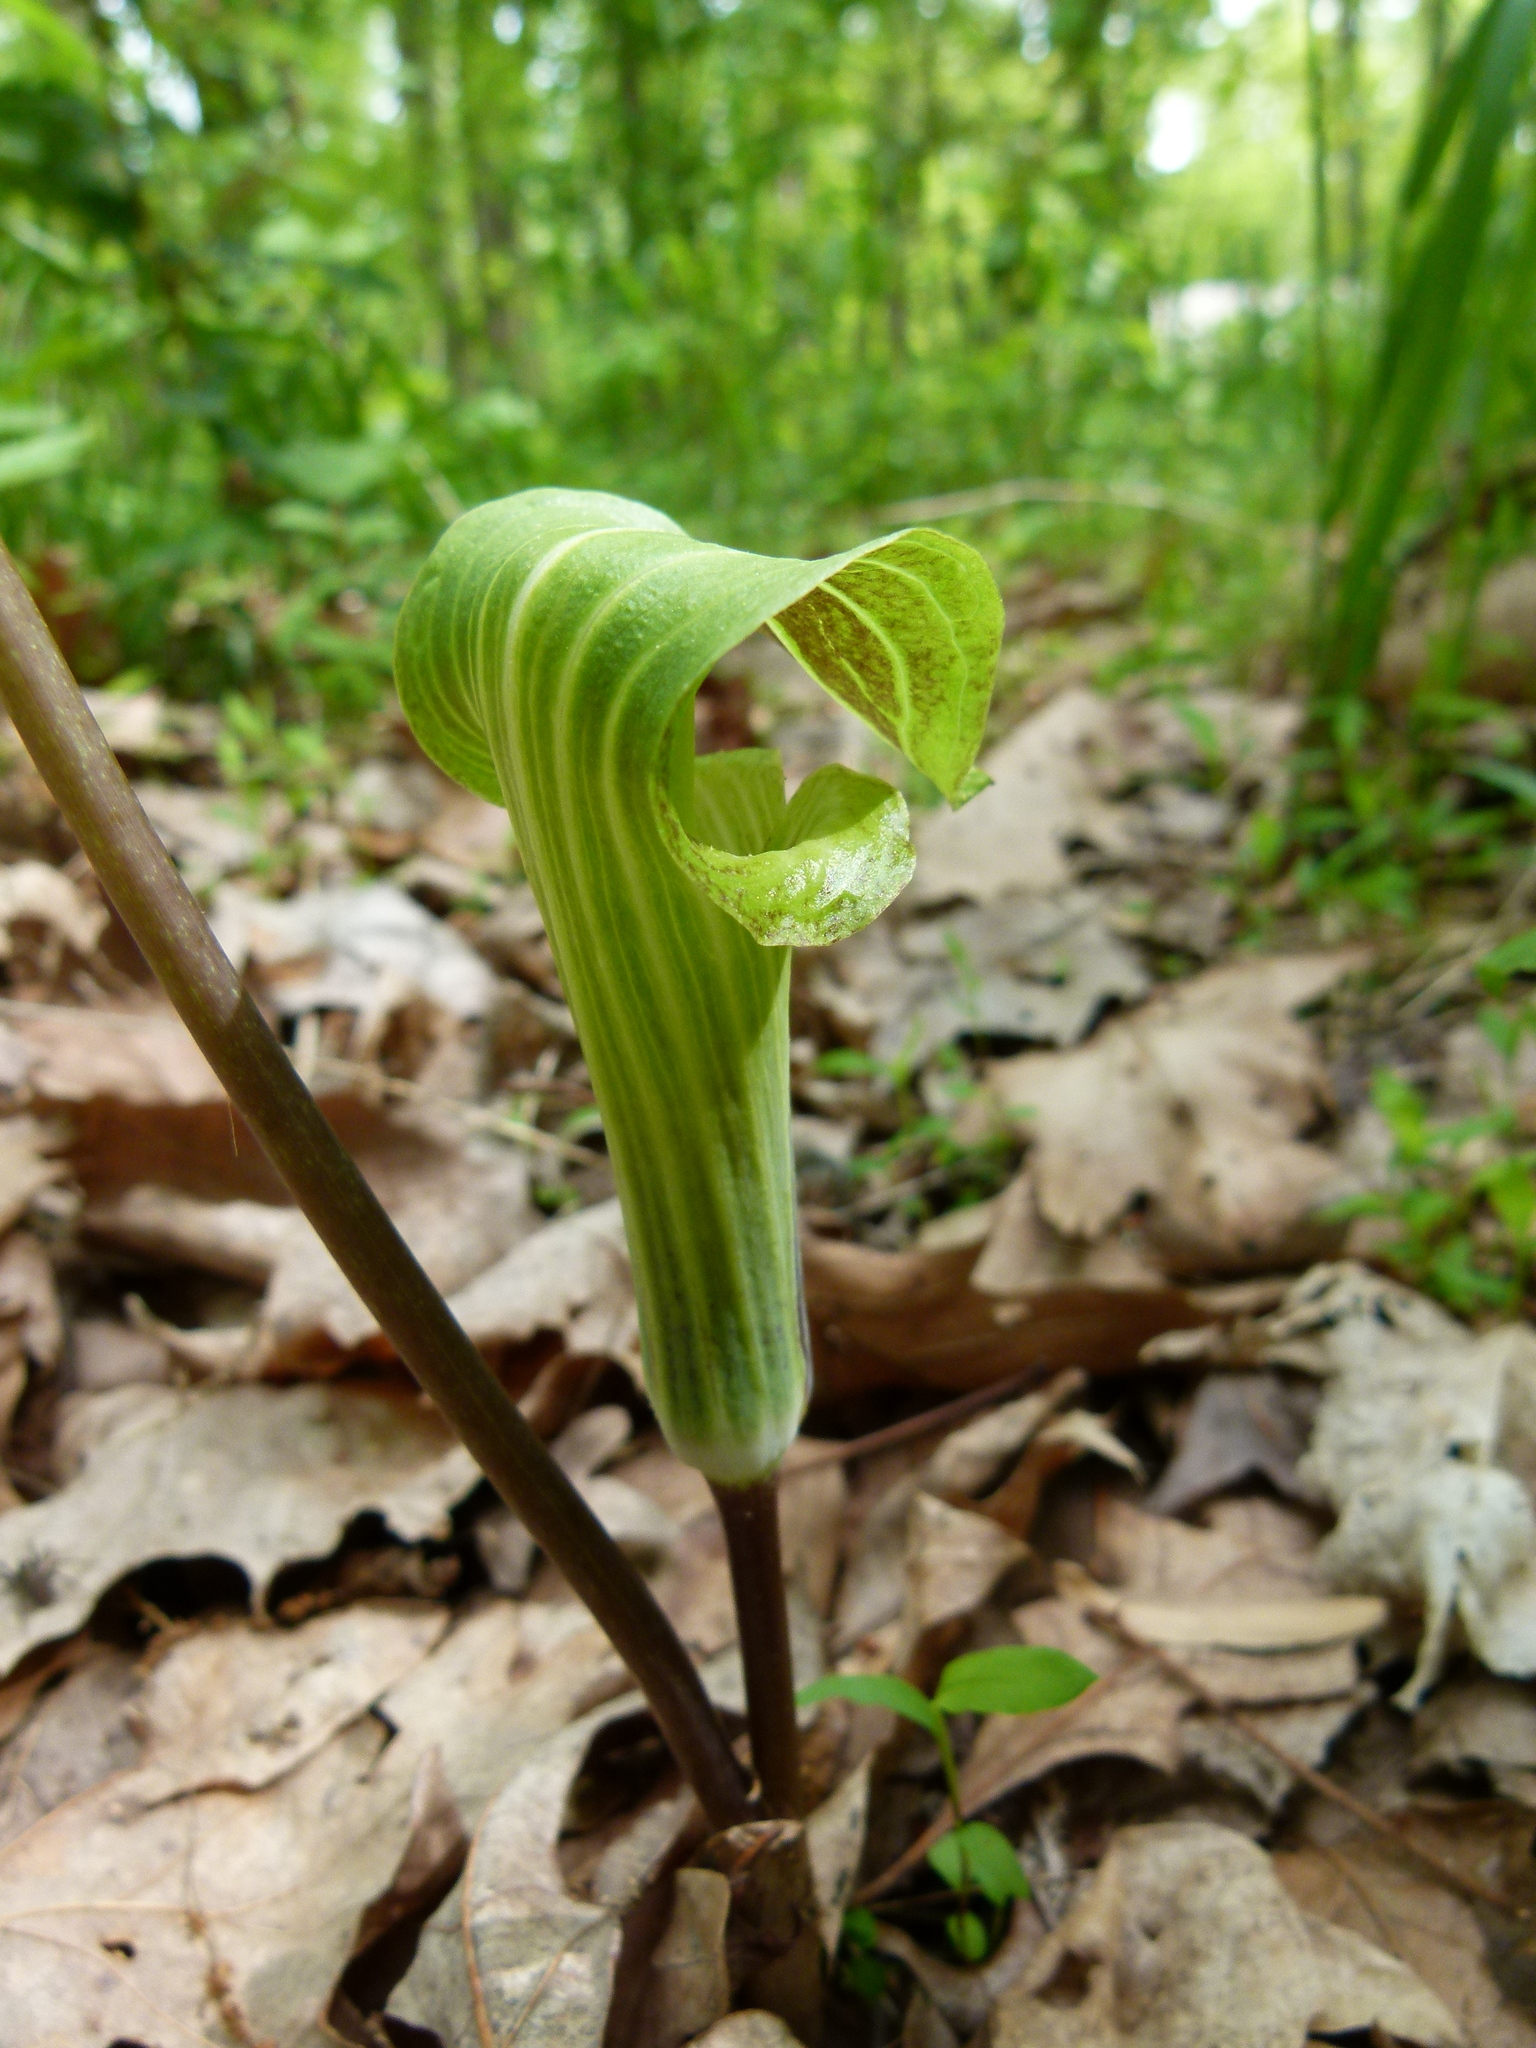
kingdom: Plantae
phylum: Tracheophyta
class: Liliopsida
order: Alismatales
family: Araceae
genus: Arisaema
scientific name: Arisaema triphyllum
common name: Jack-in-the-pulpit
